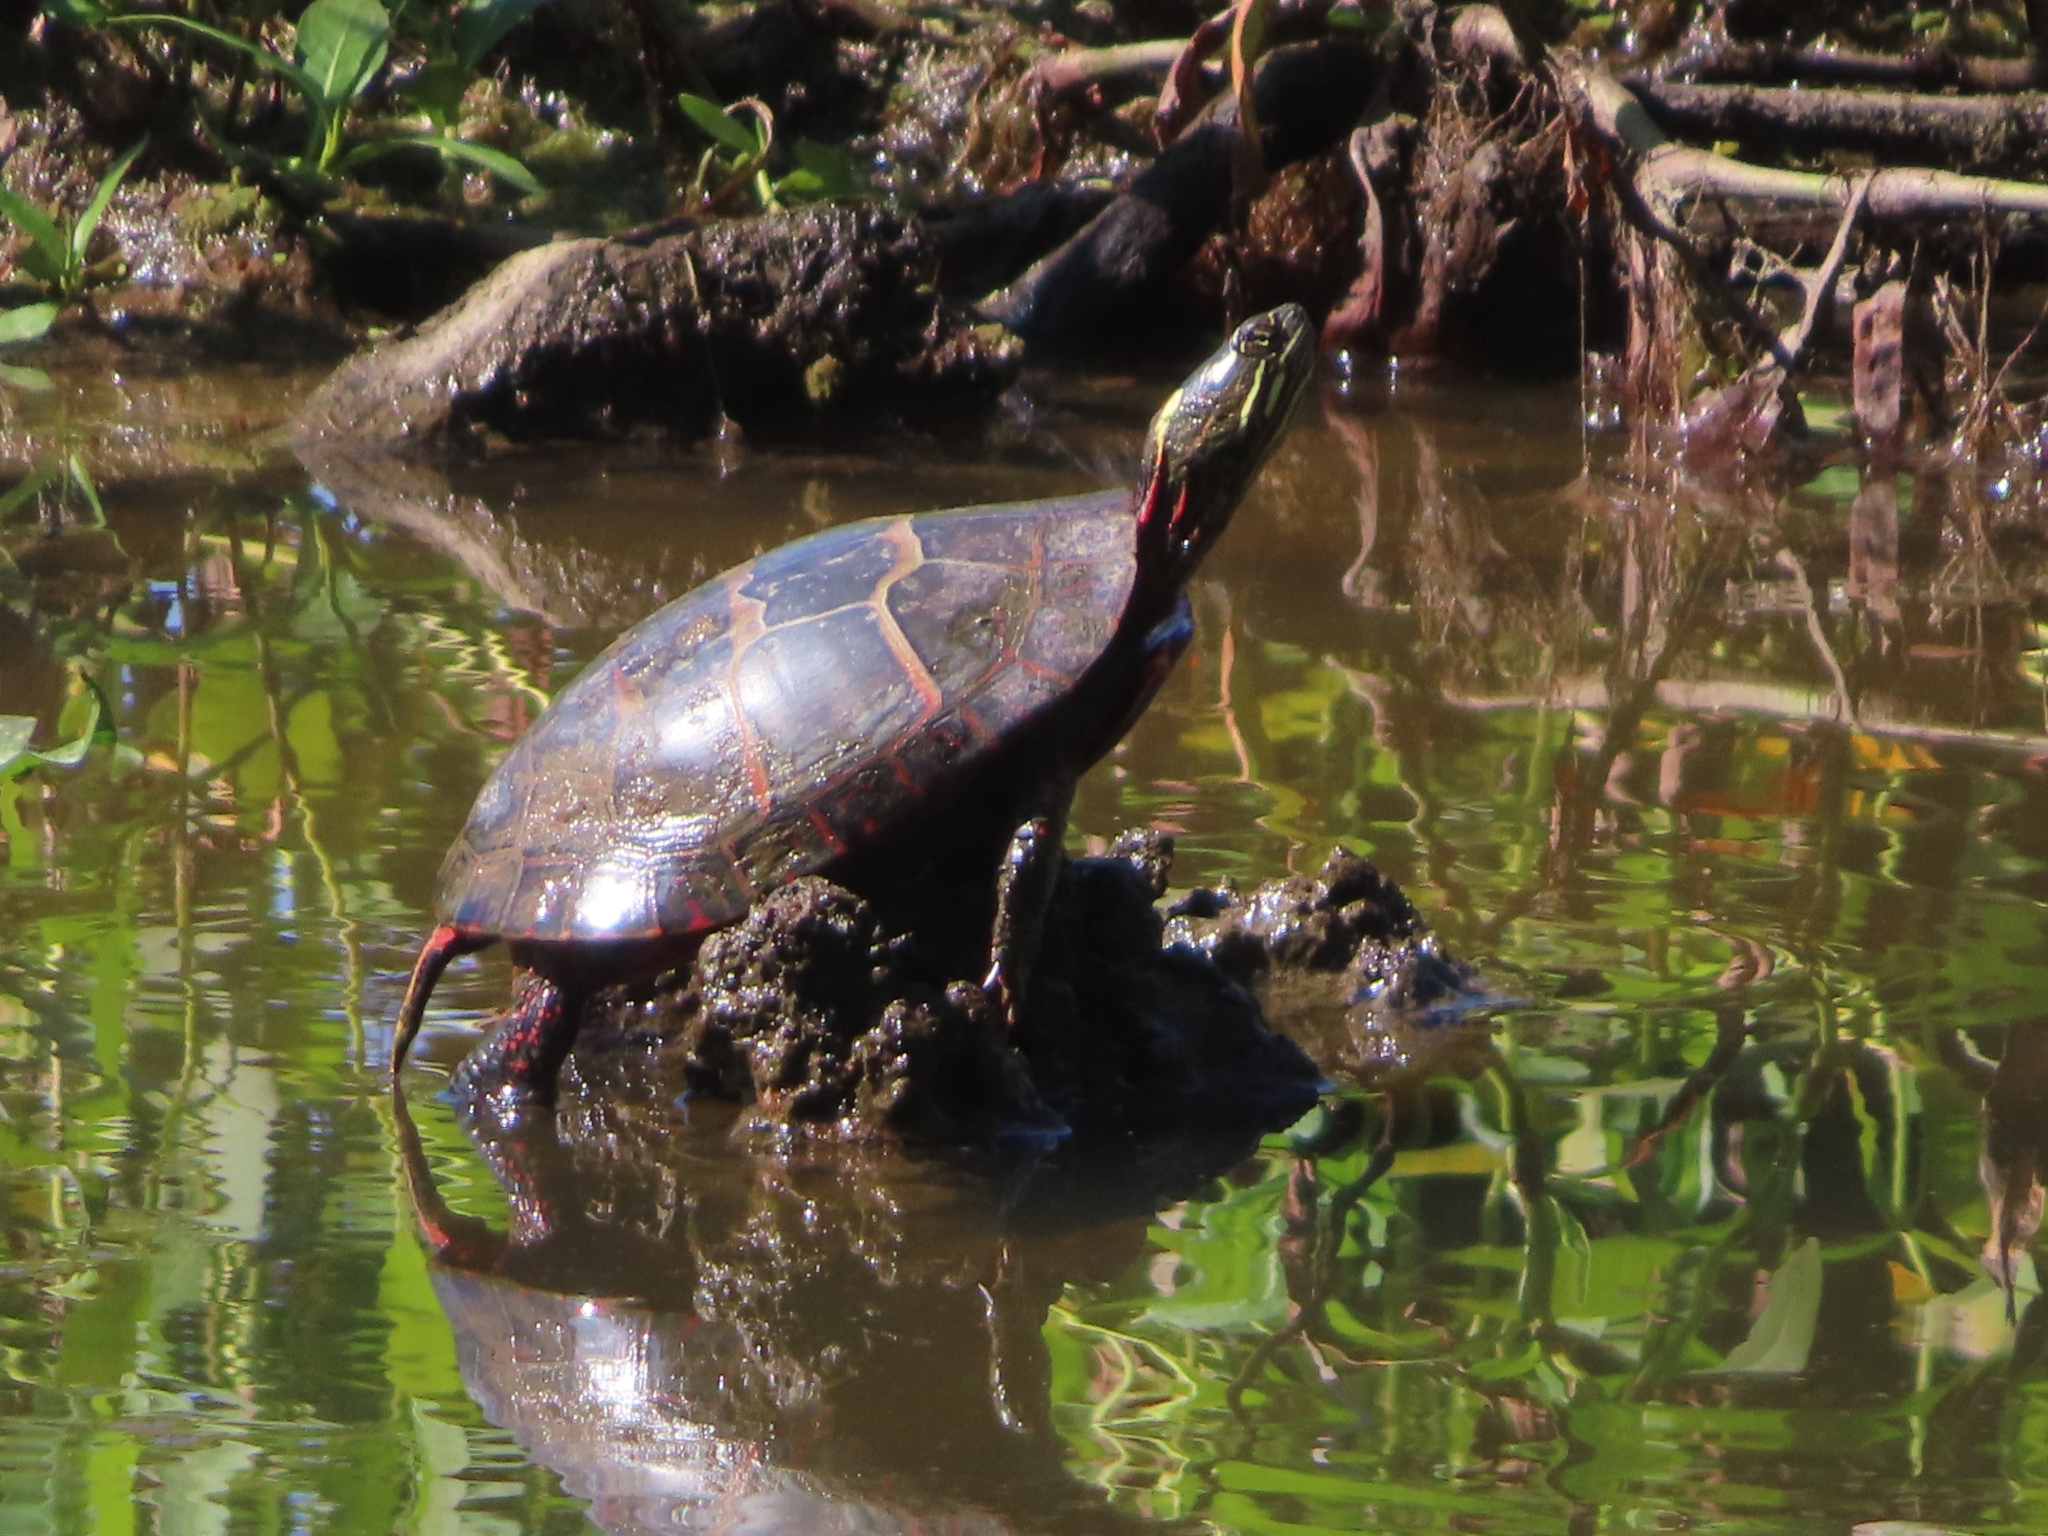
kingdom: Animalia
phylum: Chordata
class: Testudines
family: Emydidae
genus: Chrysemys
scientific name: Chrysemys picta
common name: Painted turtle
